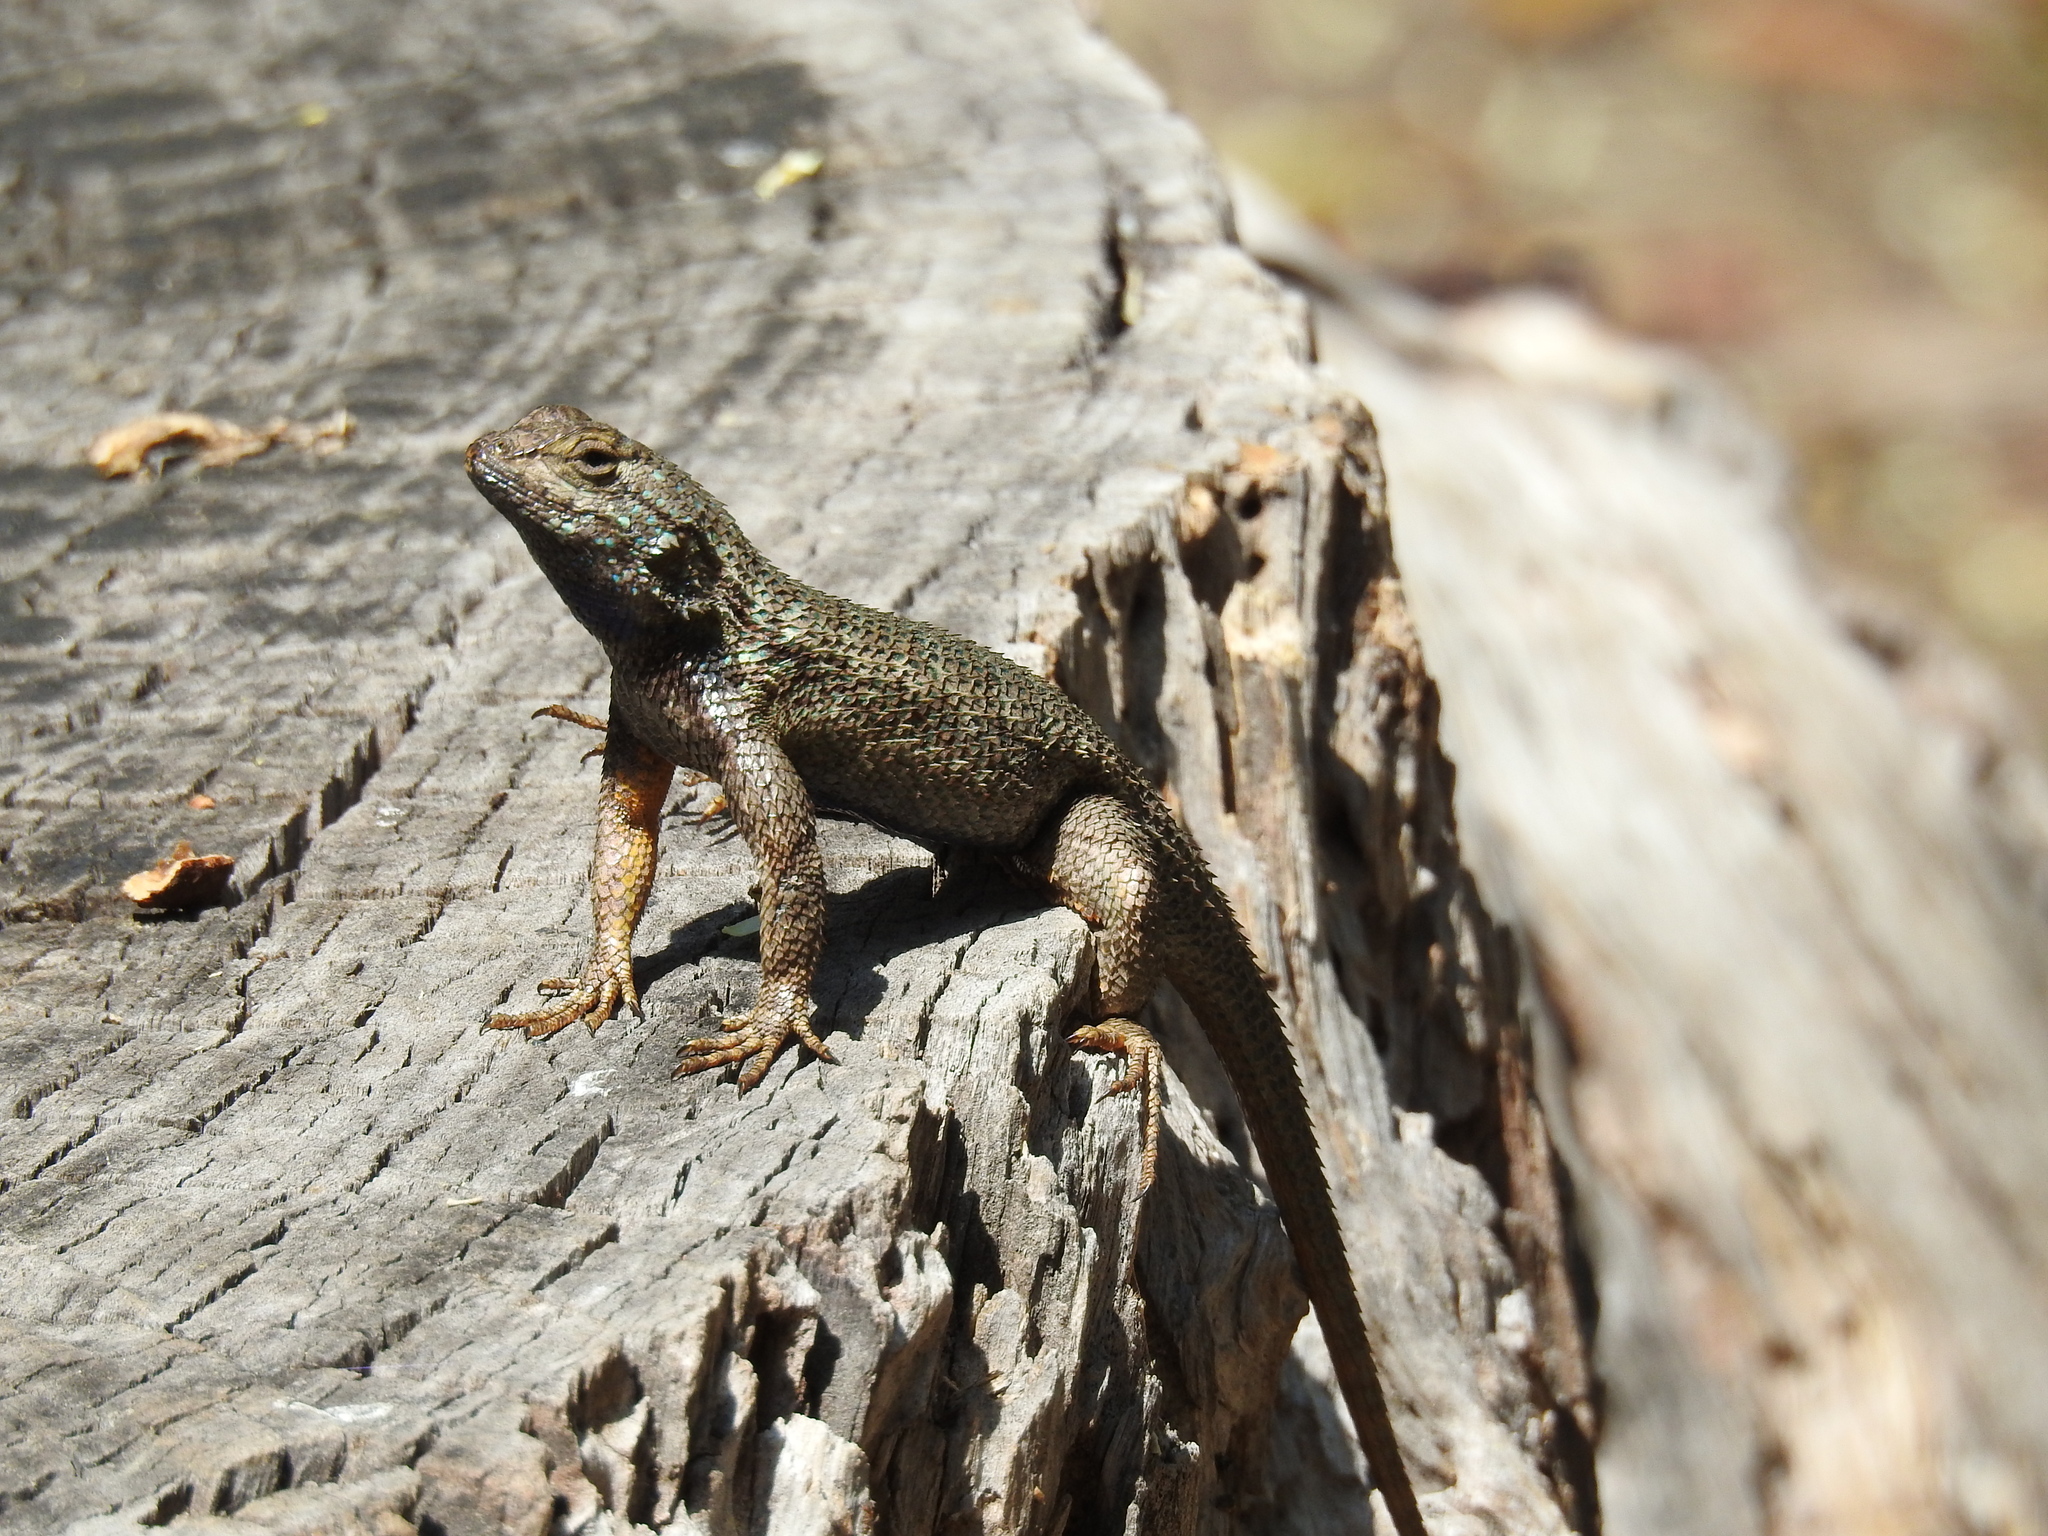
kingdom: Animalia
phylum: Chordata
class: Squamata
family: Phrynosomatidae
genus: Sceloporus
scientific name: Sceloporus occidentalis
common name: Western fence lizard
